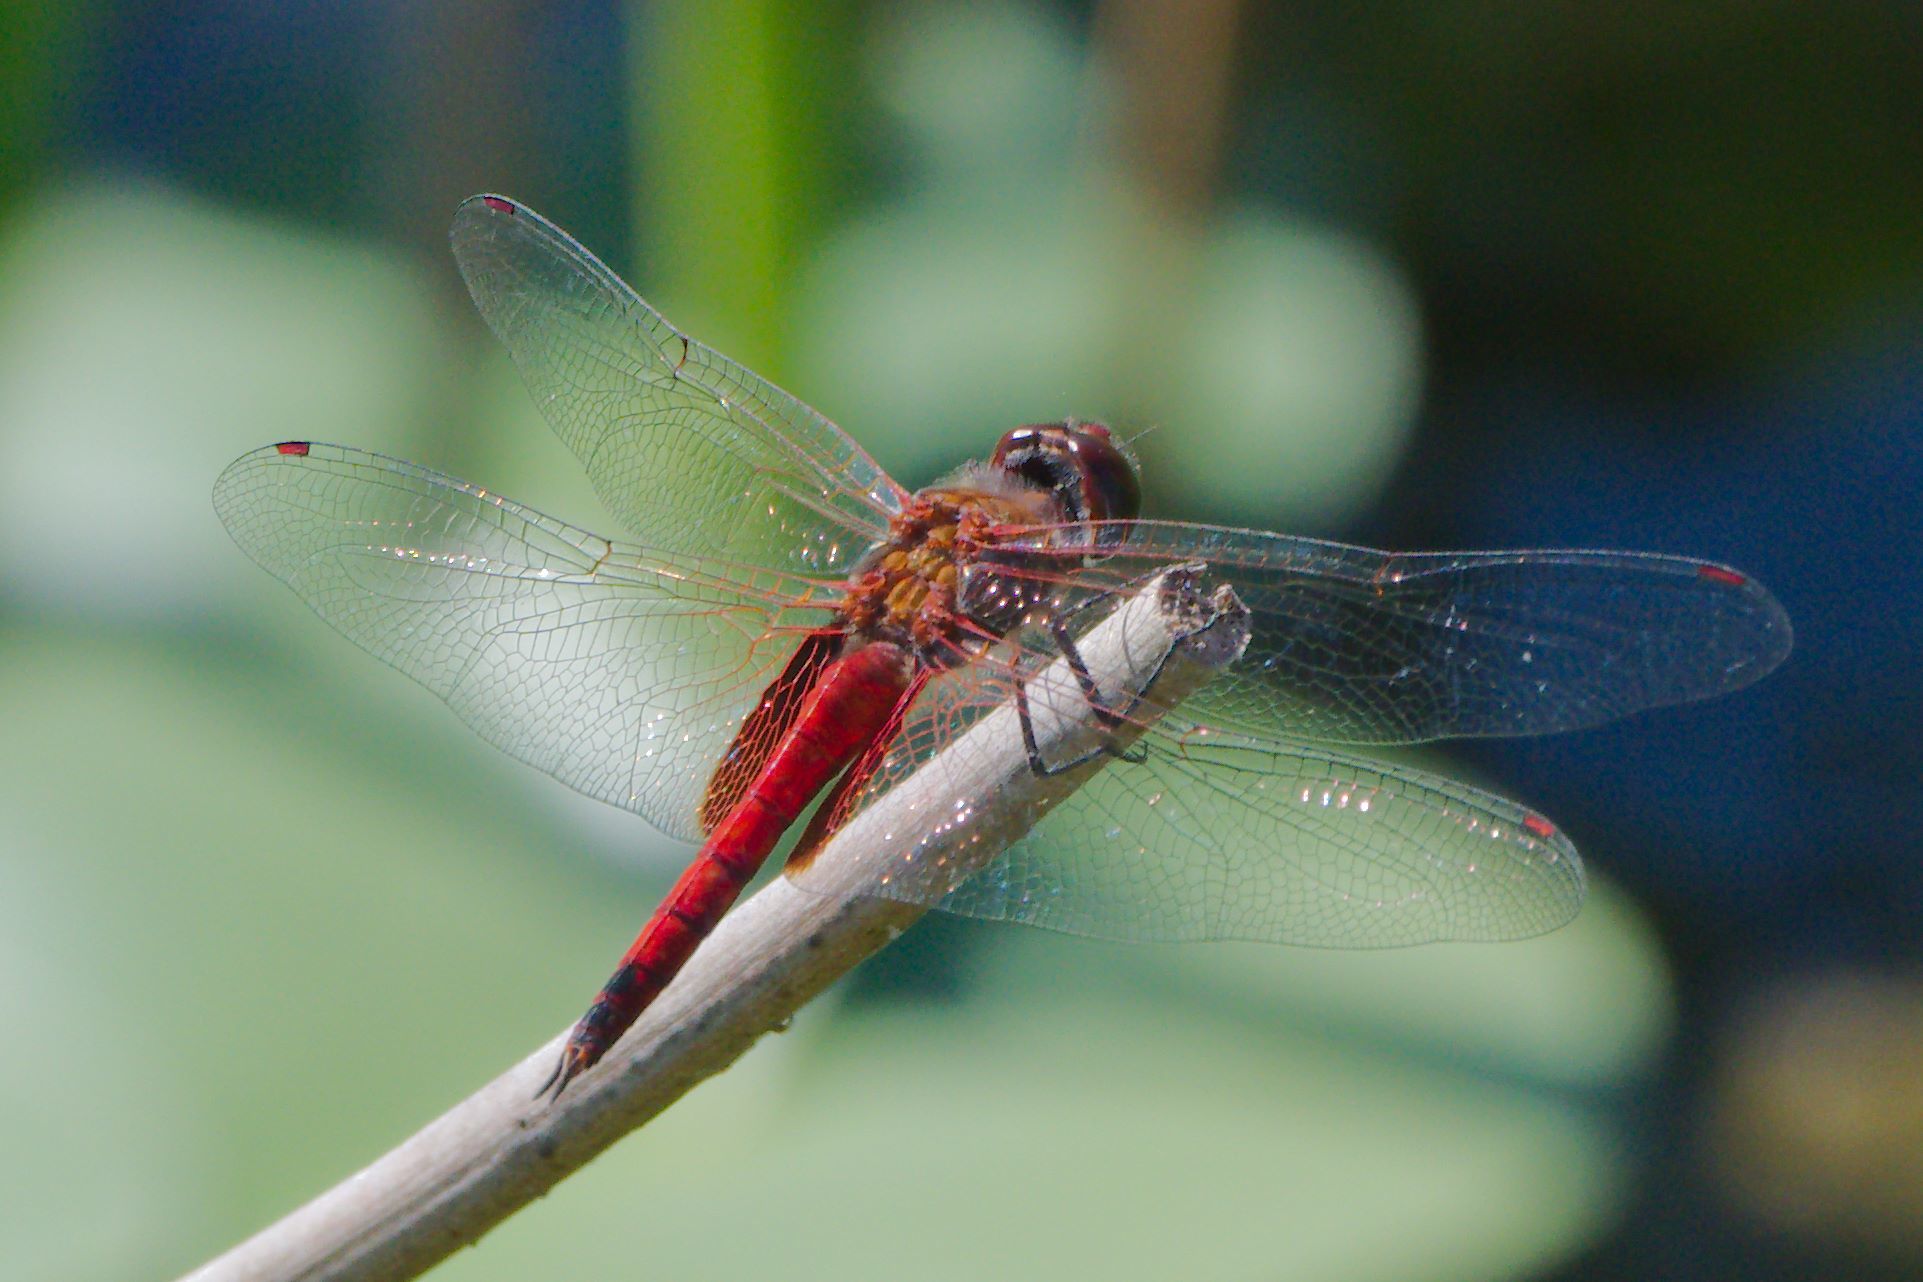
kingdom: Animalia
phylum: Arthropoda
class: Insecta
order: Odonata
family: Libellulidae
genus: Tramea
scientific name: Tramea abdominalis
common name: Vermilion saddlebags
